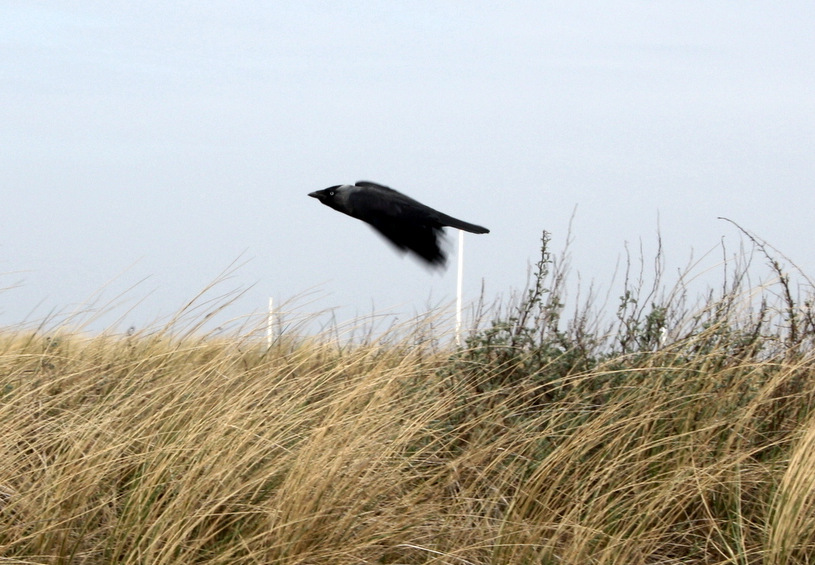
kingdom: Animalia
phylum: Chordata
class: Aves
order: Passeriformes
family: Corvidae
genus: Coloeus
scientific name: Coloeus monedula
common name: Western jackdaw
